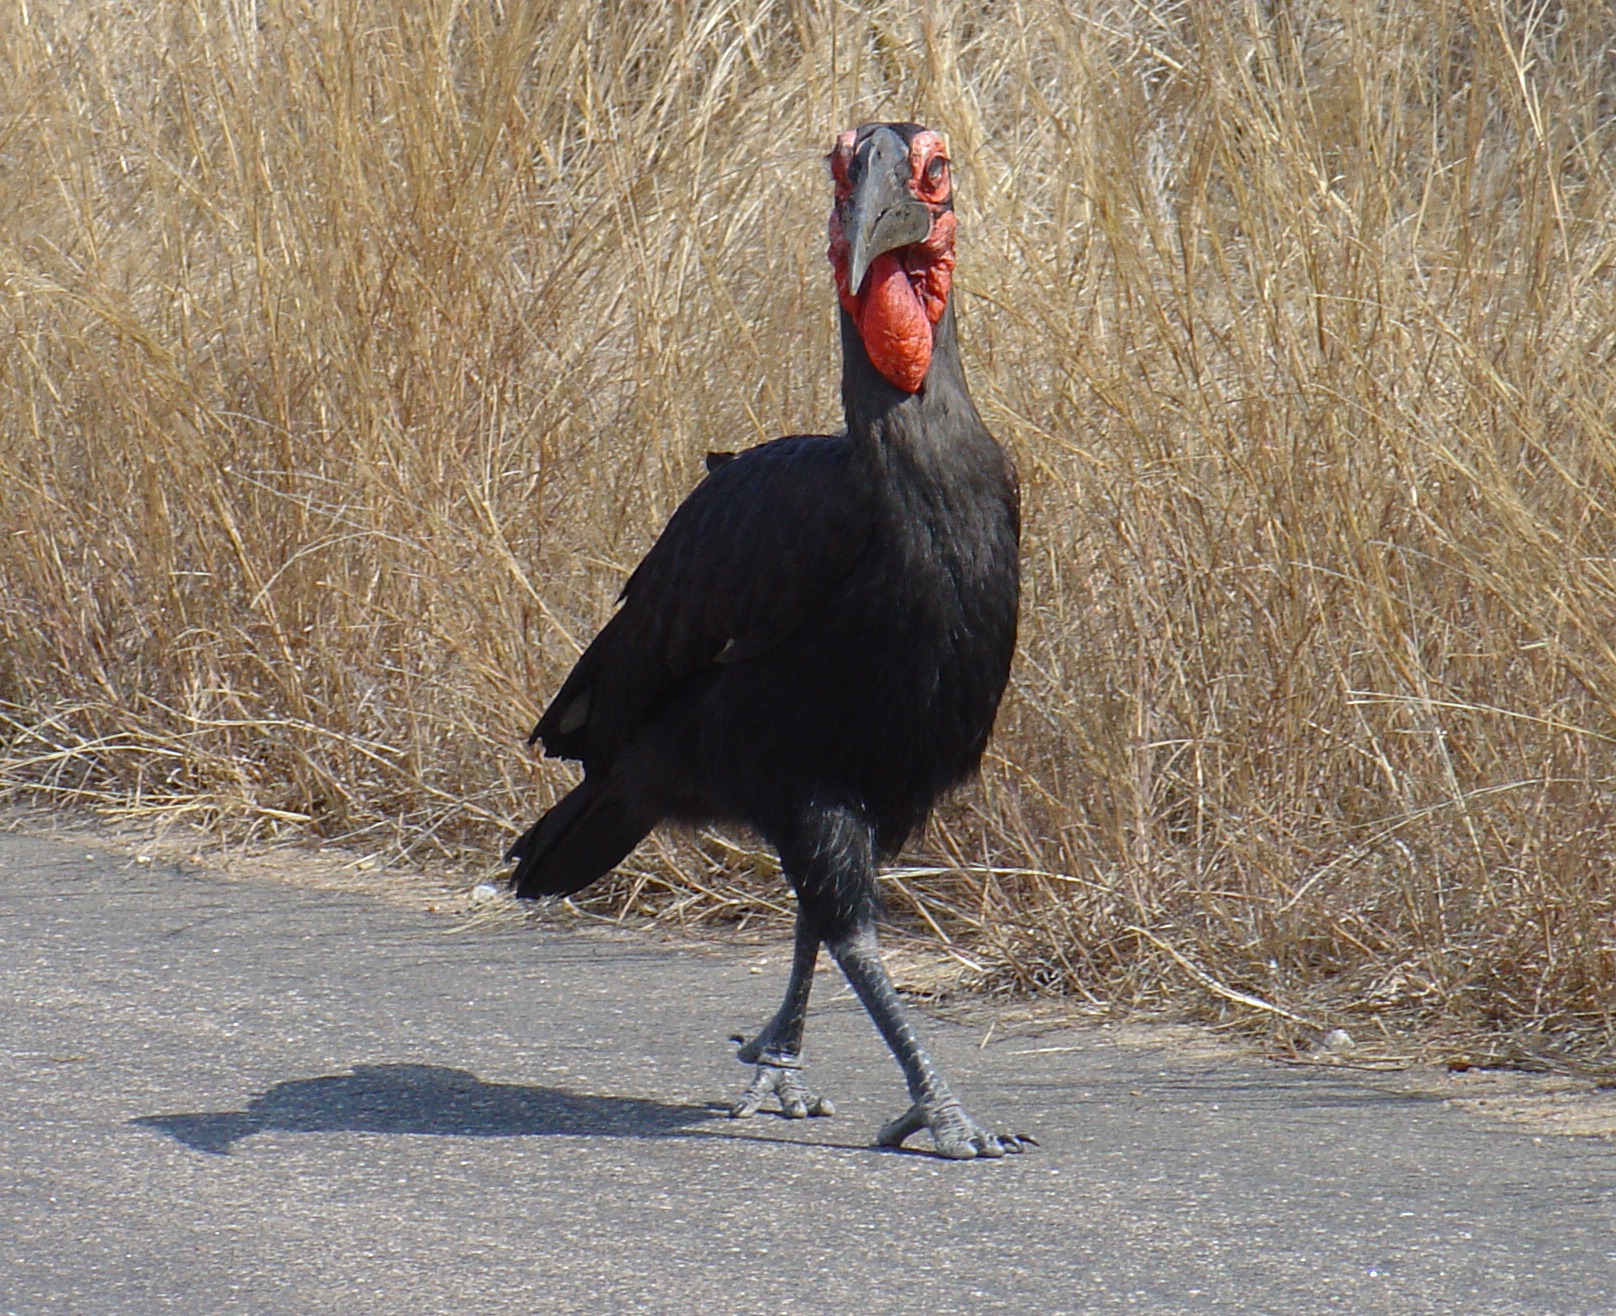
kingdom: Animalia
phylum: Chordata
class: Aves
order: Bucerotiformes
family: Bucorvidae
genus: Bucorvus
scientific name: Bucorvus leadbeateri
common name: Southern ground-hornbill
